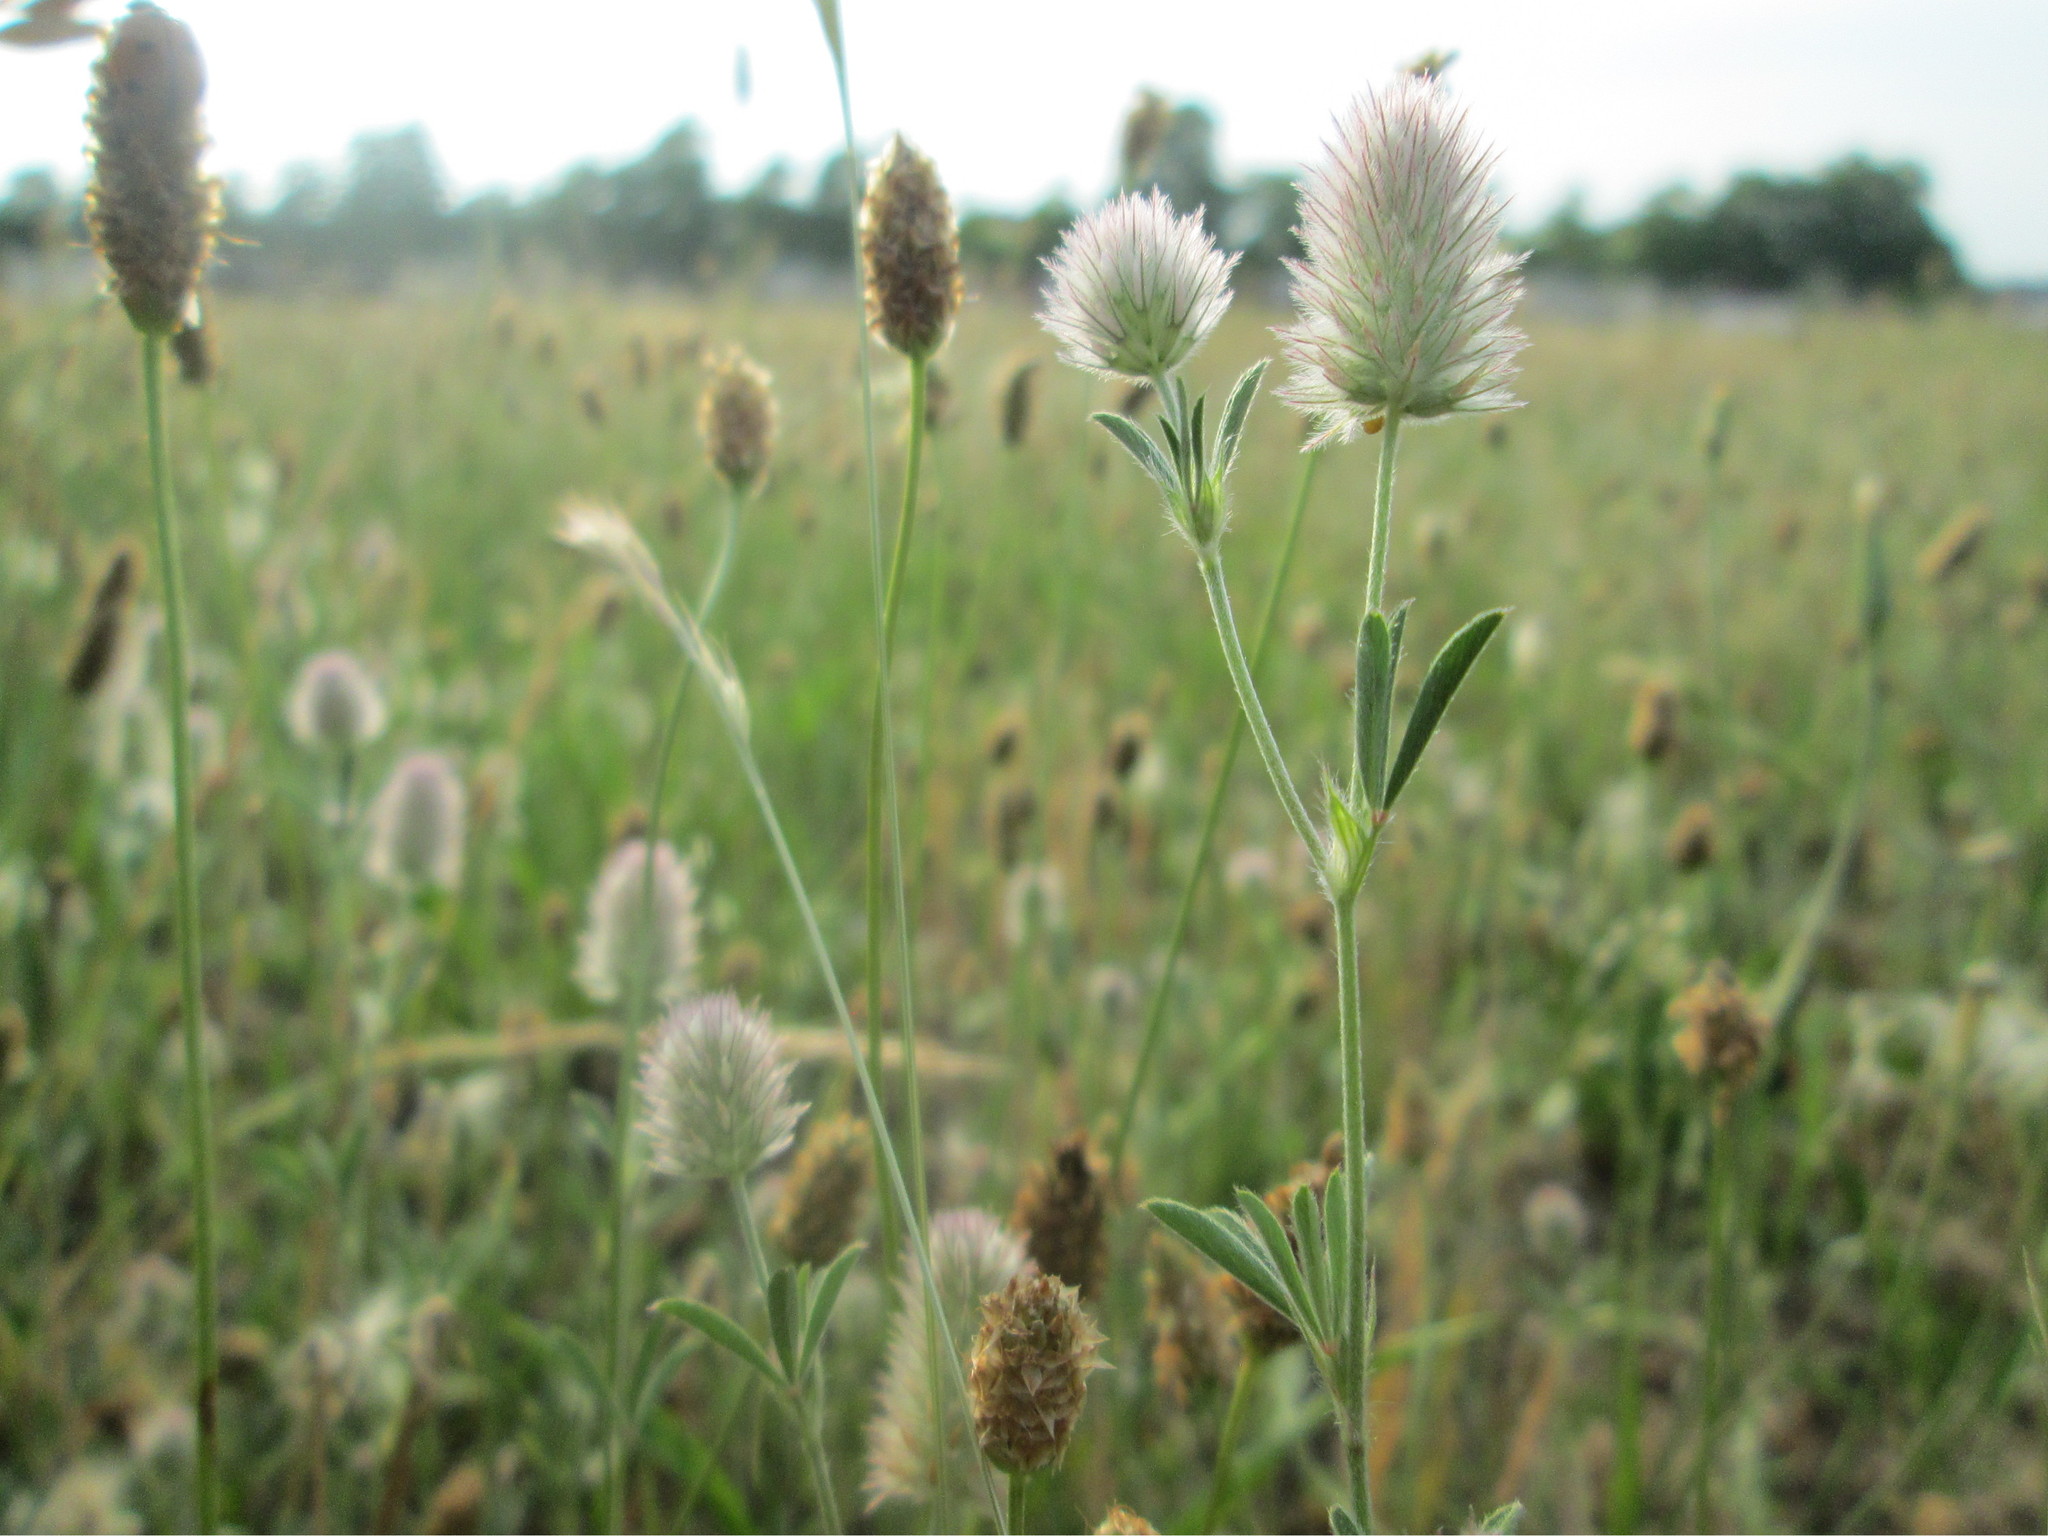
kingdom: Plantae
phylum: Tracheophyta
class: Magnoliopsida
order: Fabales
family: Fabaceae
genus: Trifolium
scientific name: Trifolium arvense
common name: Hare's-foot clover
